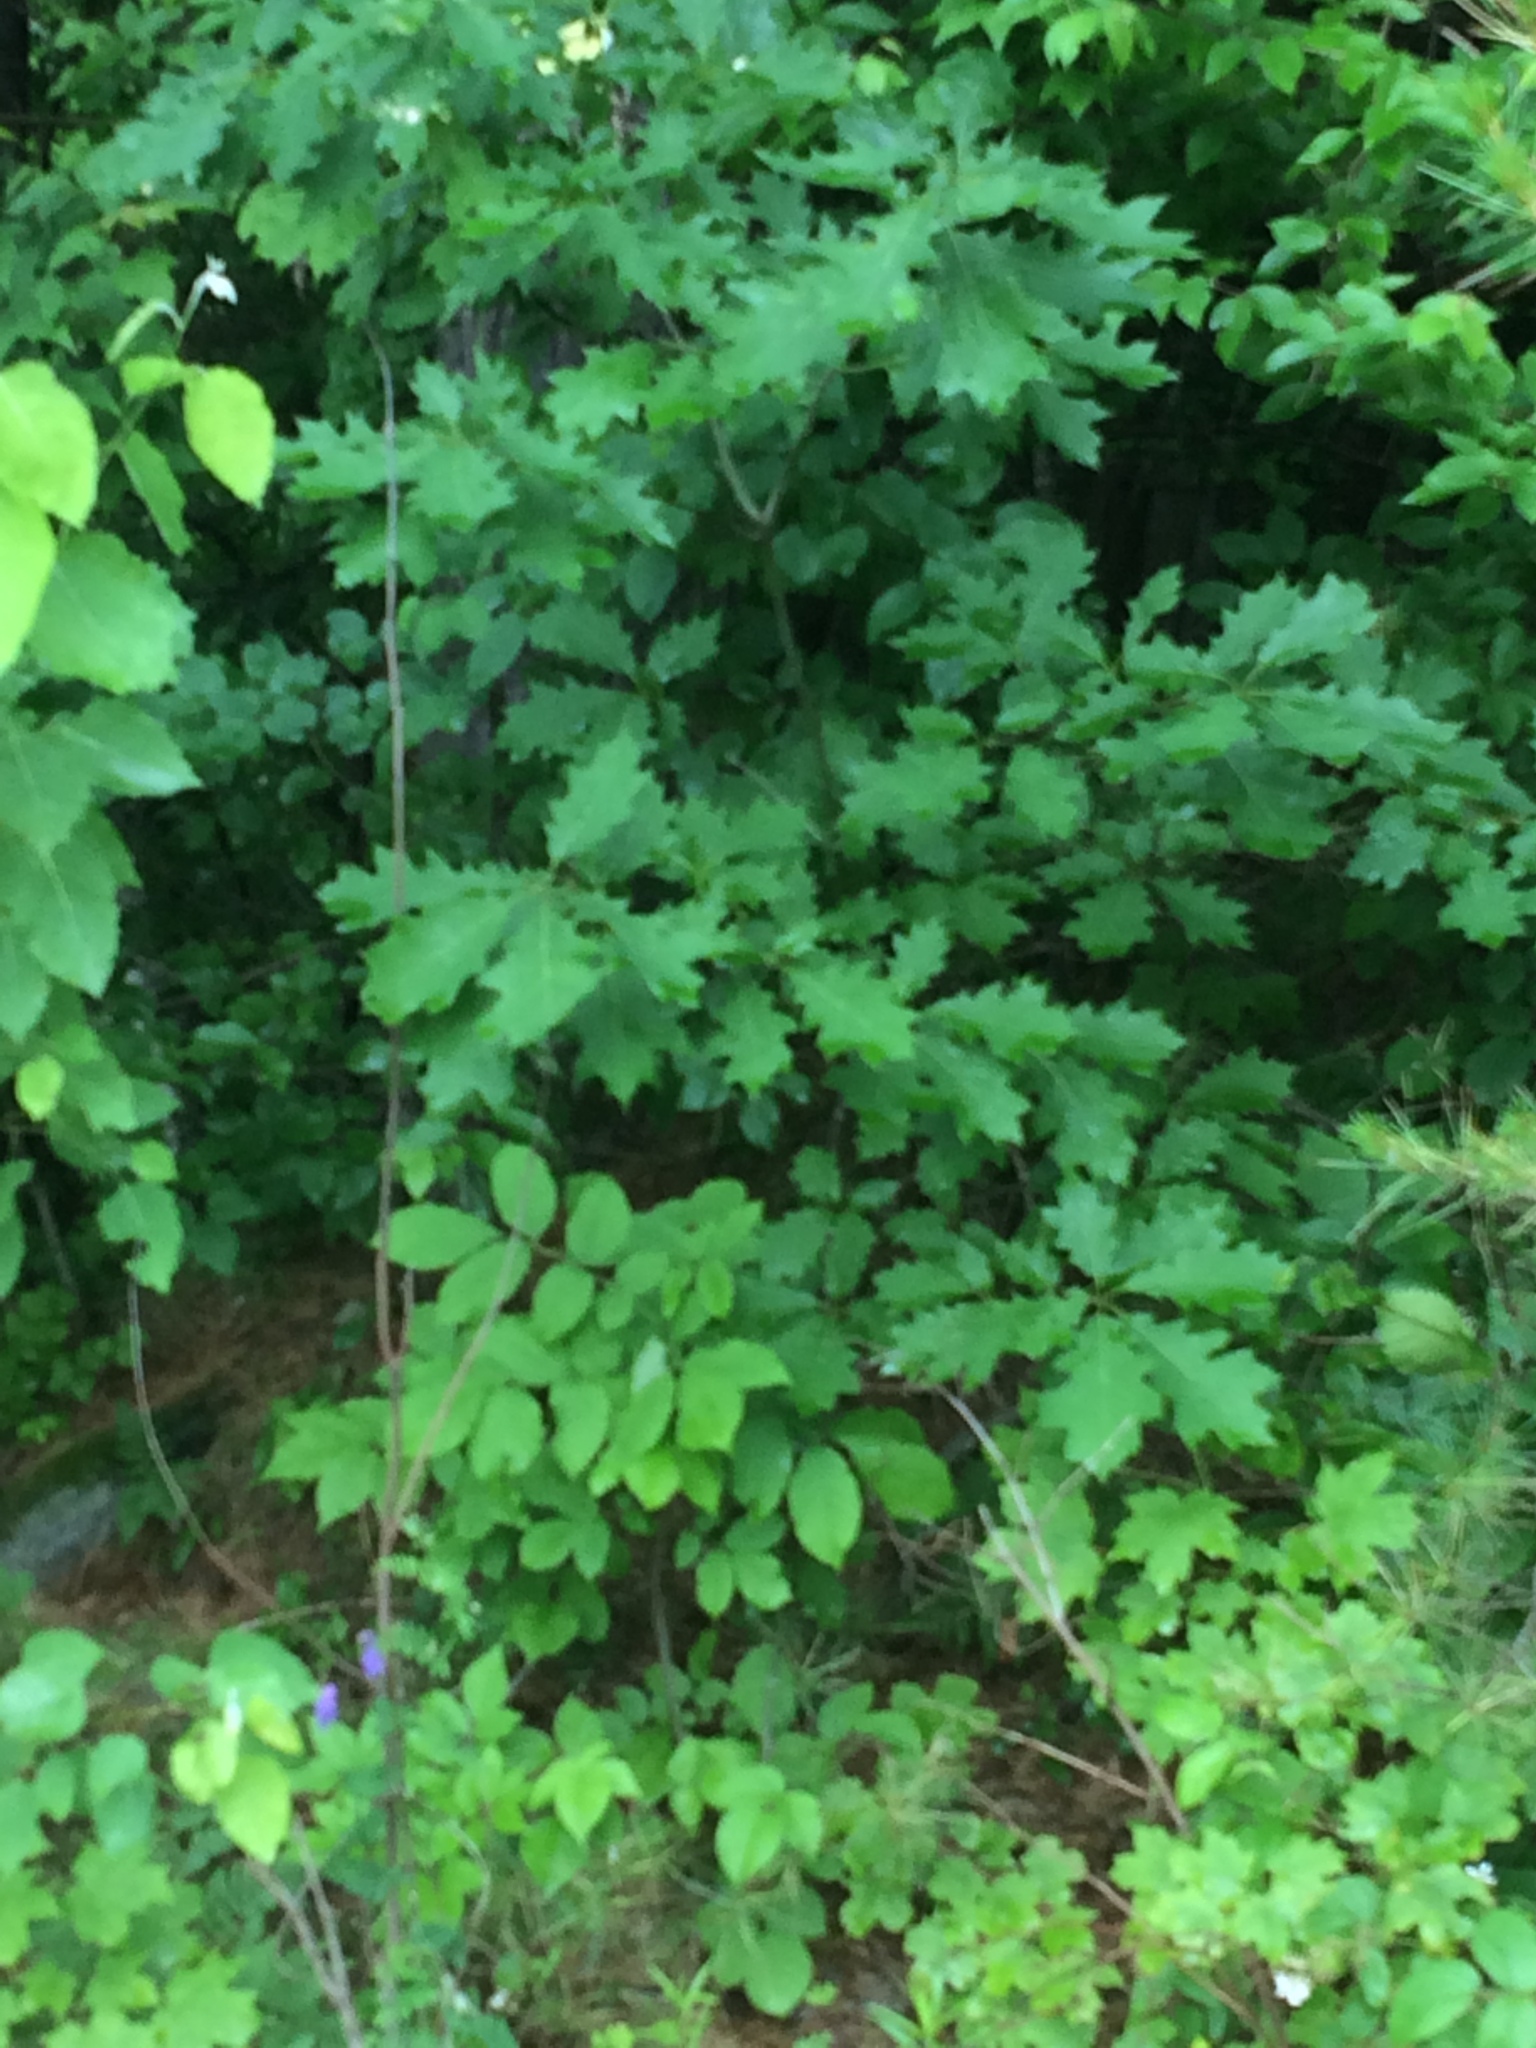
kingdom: Plantae
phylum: Tracheophyta
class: Magnoliopsida
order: Fagales
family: Fagaceae
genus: Quercus
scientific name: Quercus rubra
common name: Red oak
